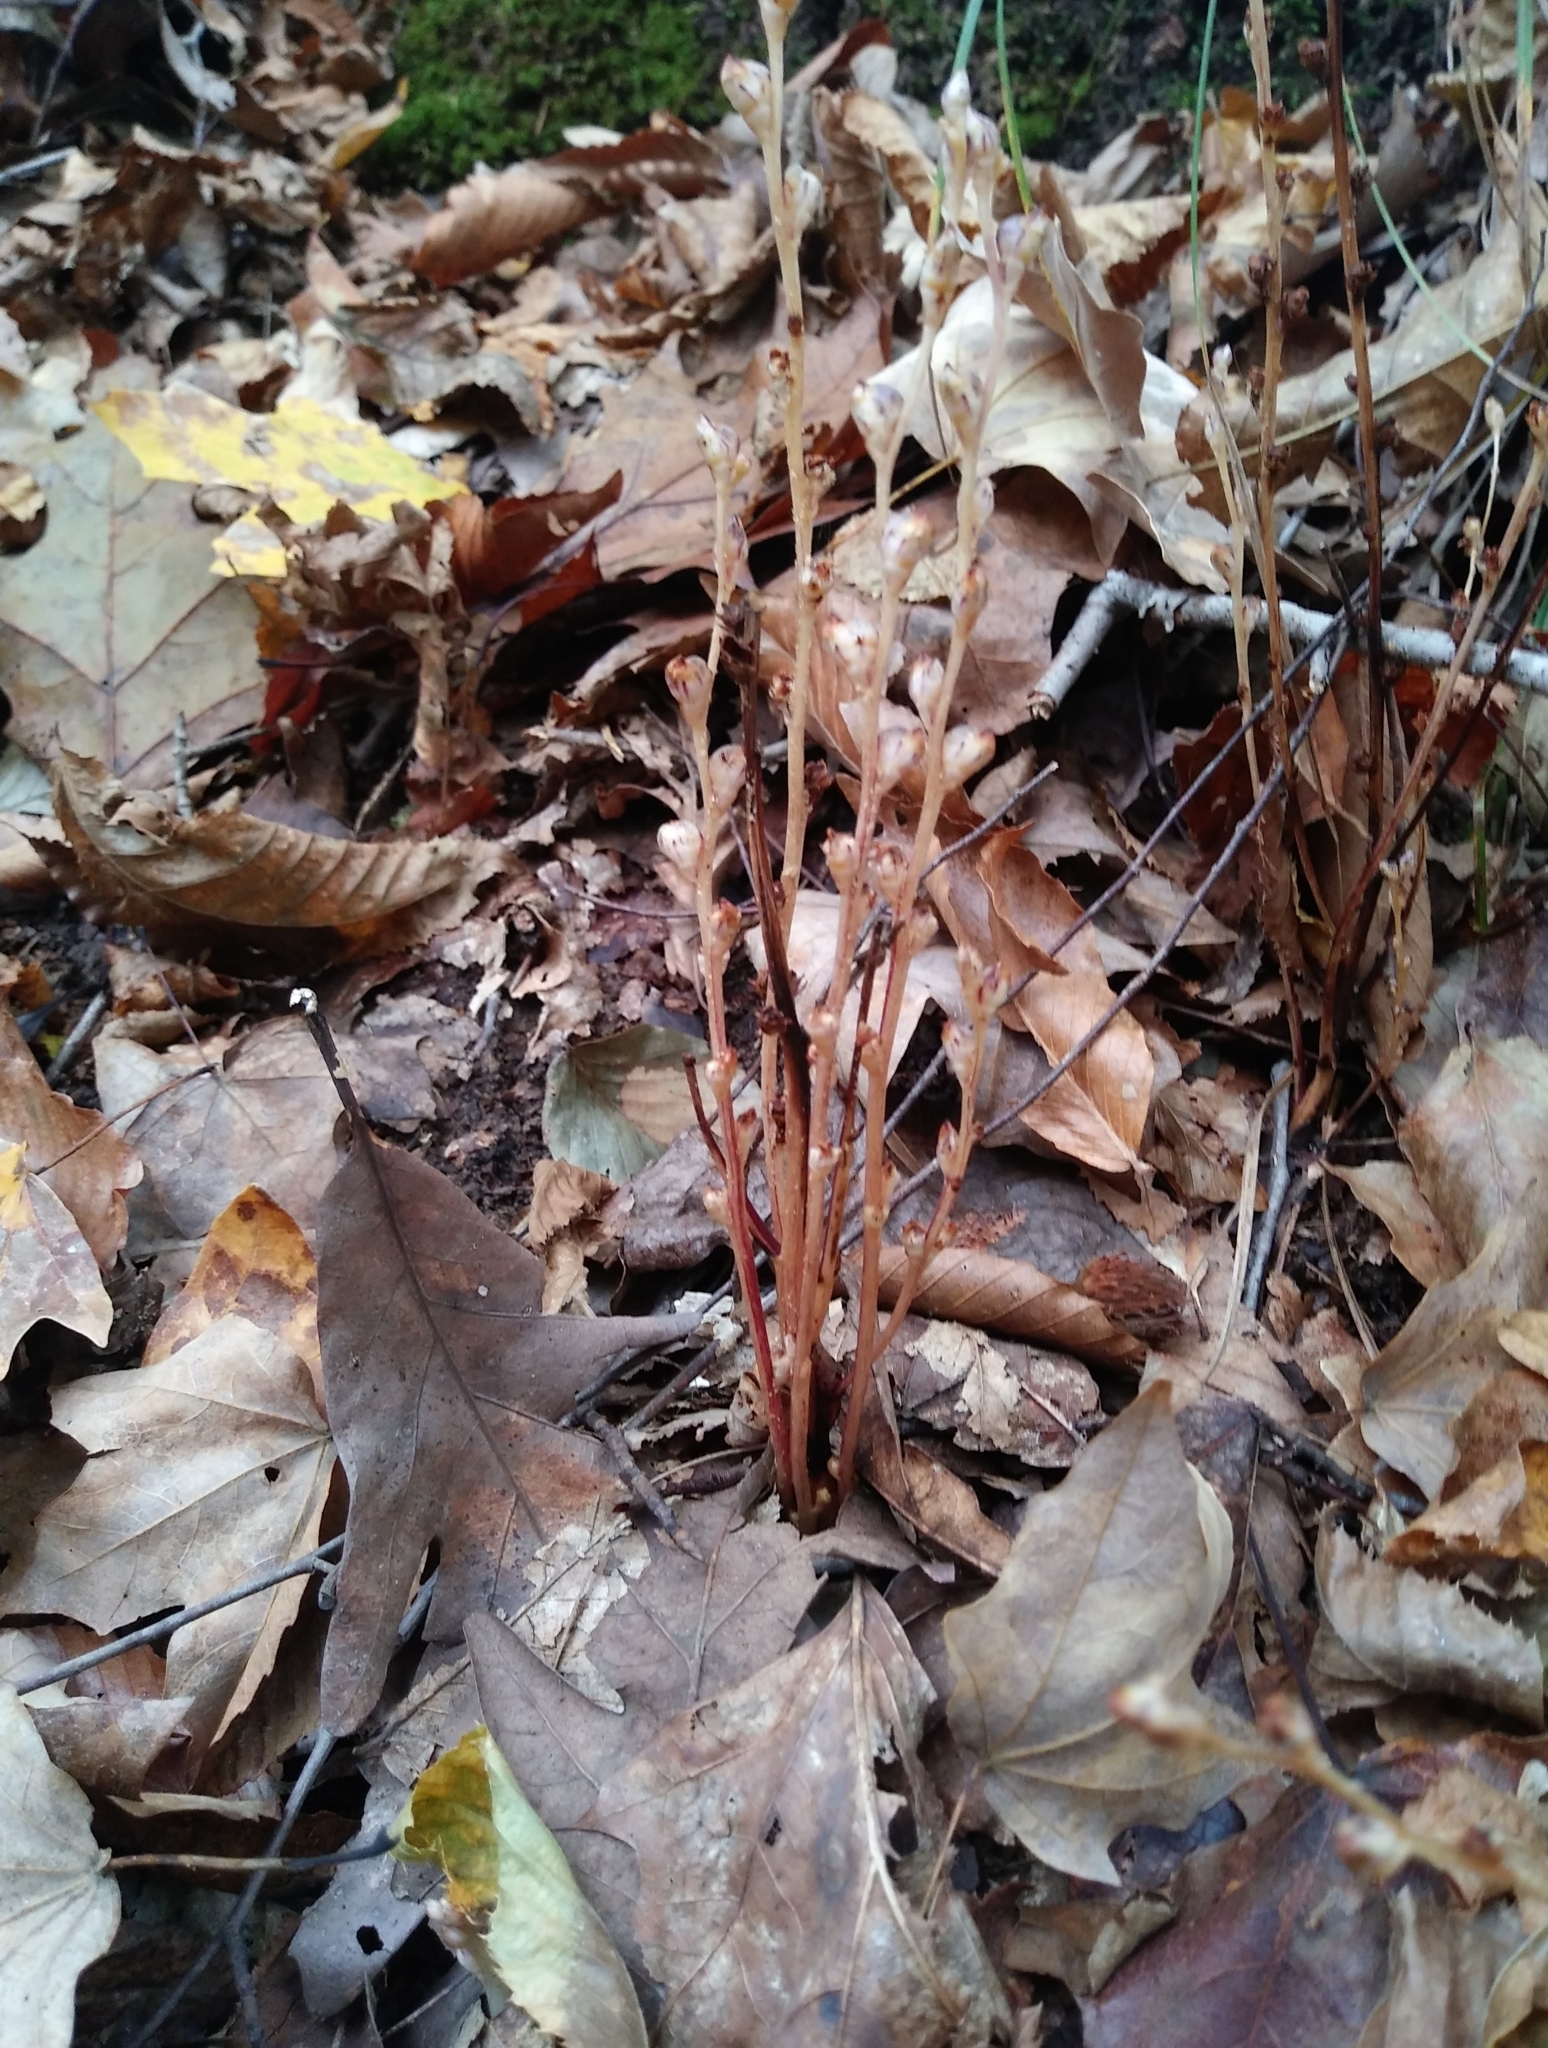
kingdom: Plantae
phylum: Tracheophyta
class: Magnoliopsida
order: Lamiales
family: Orobanchaceae
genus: Epifagus
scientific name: Epifagus virginiana
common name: Beechdrops
